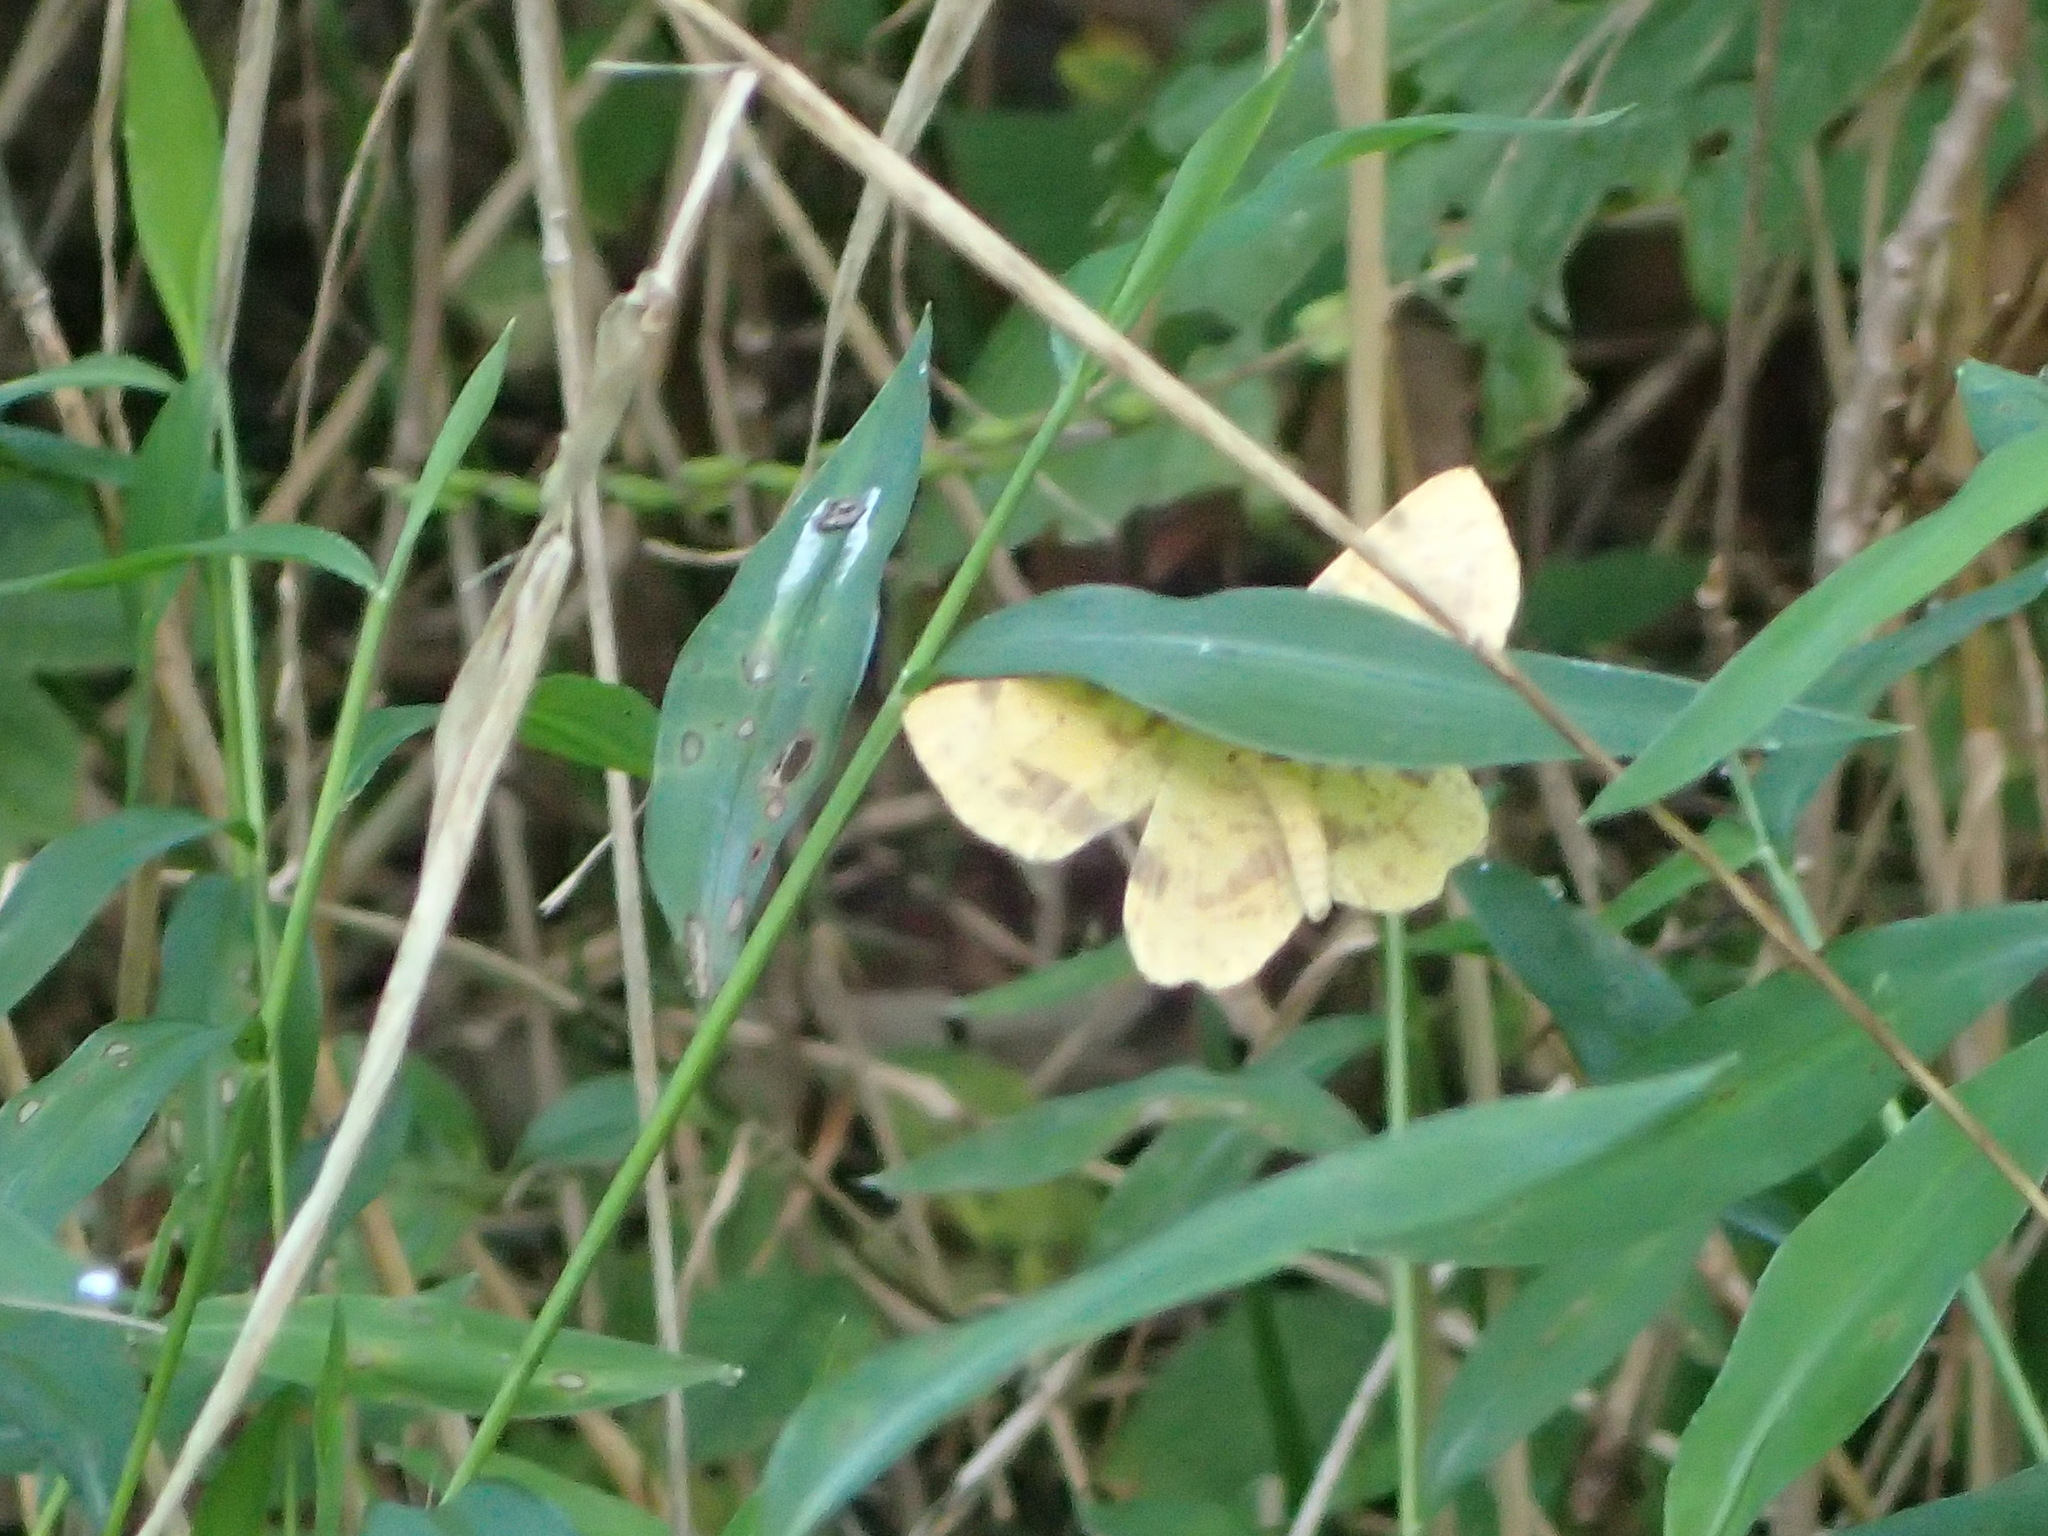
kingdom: Animalia
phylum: Arthropoda
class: Insecta
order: Lepidoptera
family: Geometridae
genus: Xanthotype
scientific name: Xanthotype
